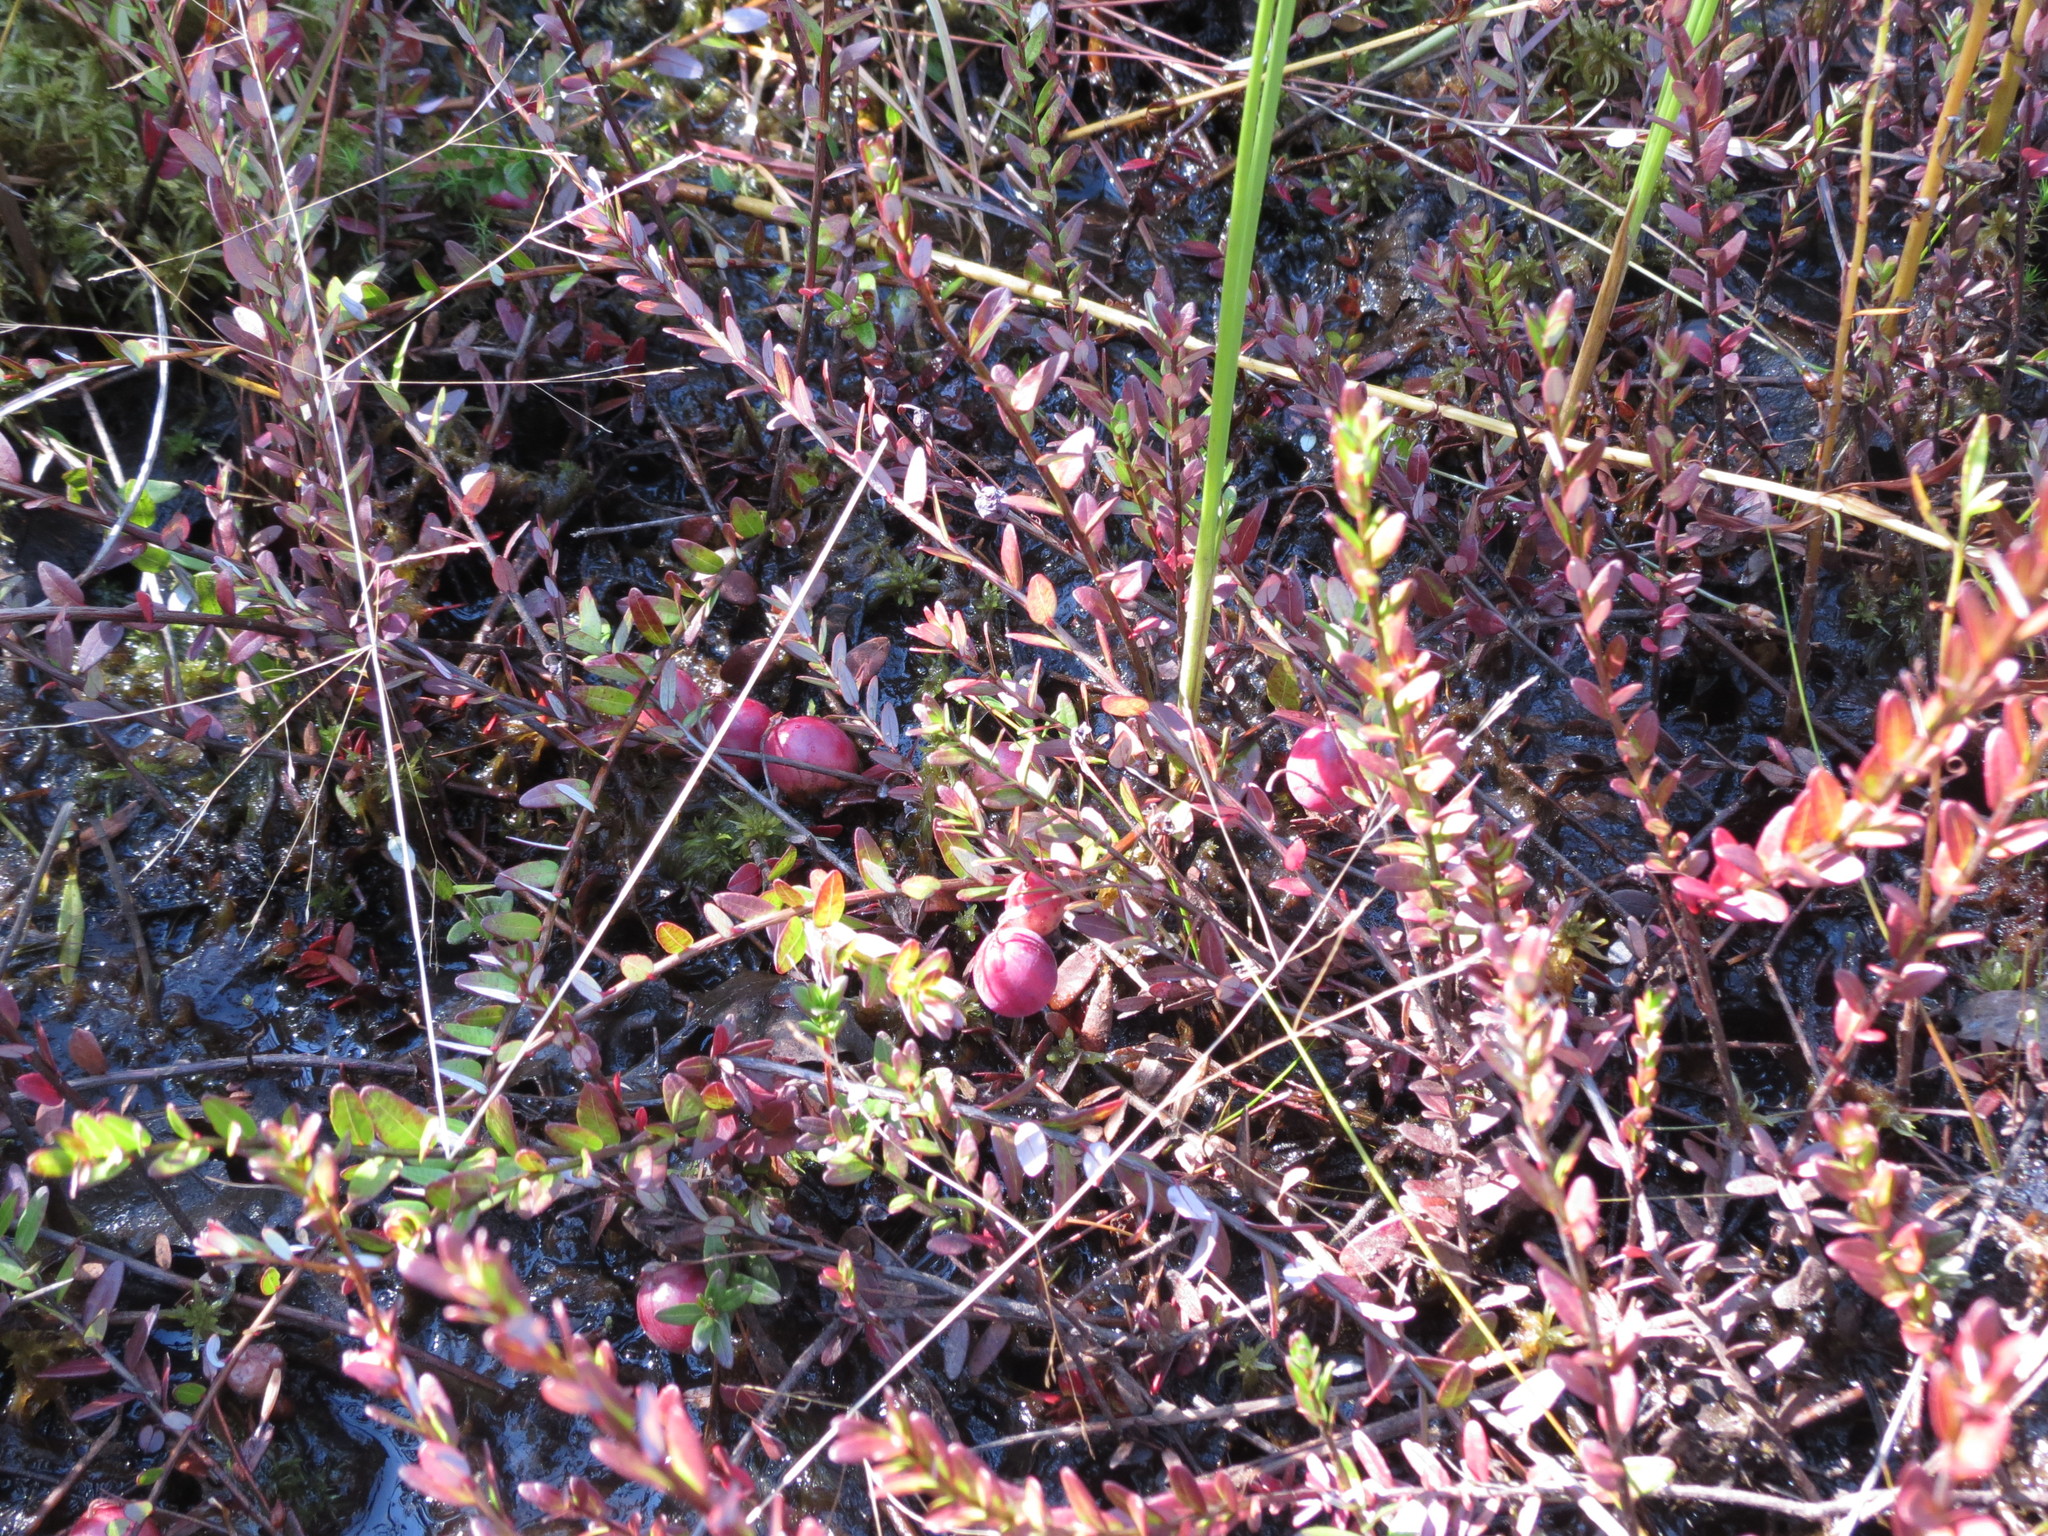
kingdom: Plantae
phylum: Tracheophyta
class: Magnoliopsida
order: Ericales
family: Ericaceae
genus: Vaccinium
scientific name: Vaccinium macrocarpon
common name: American cranberry
